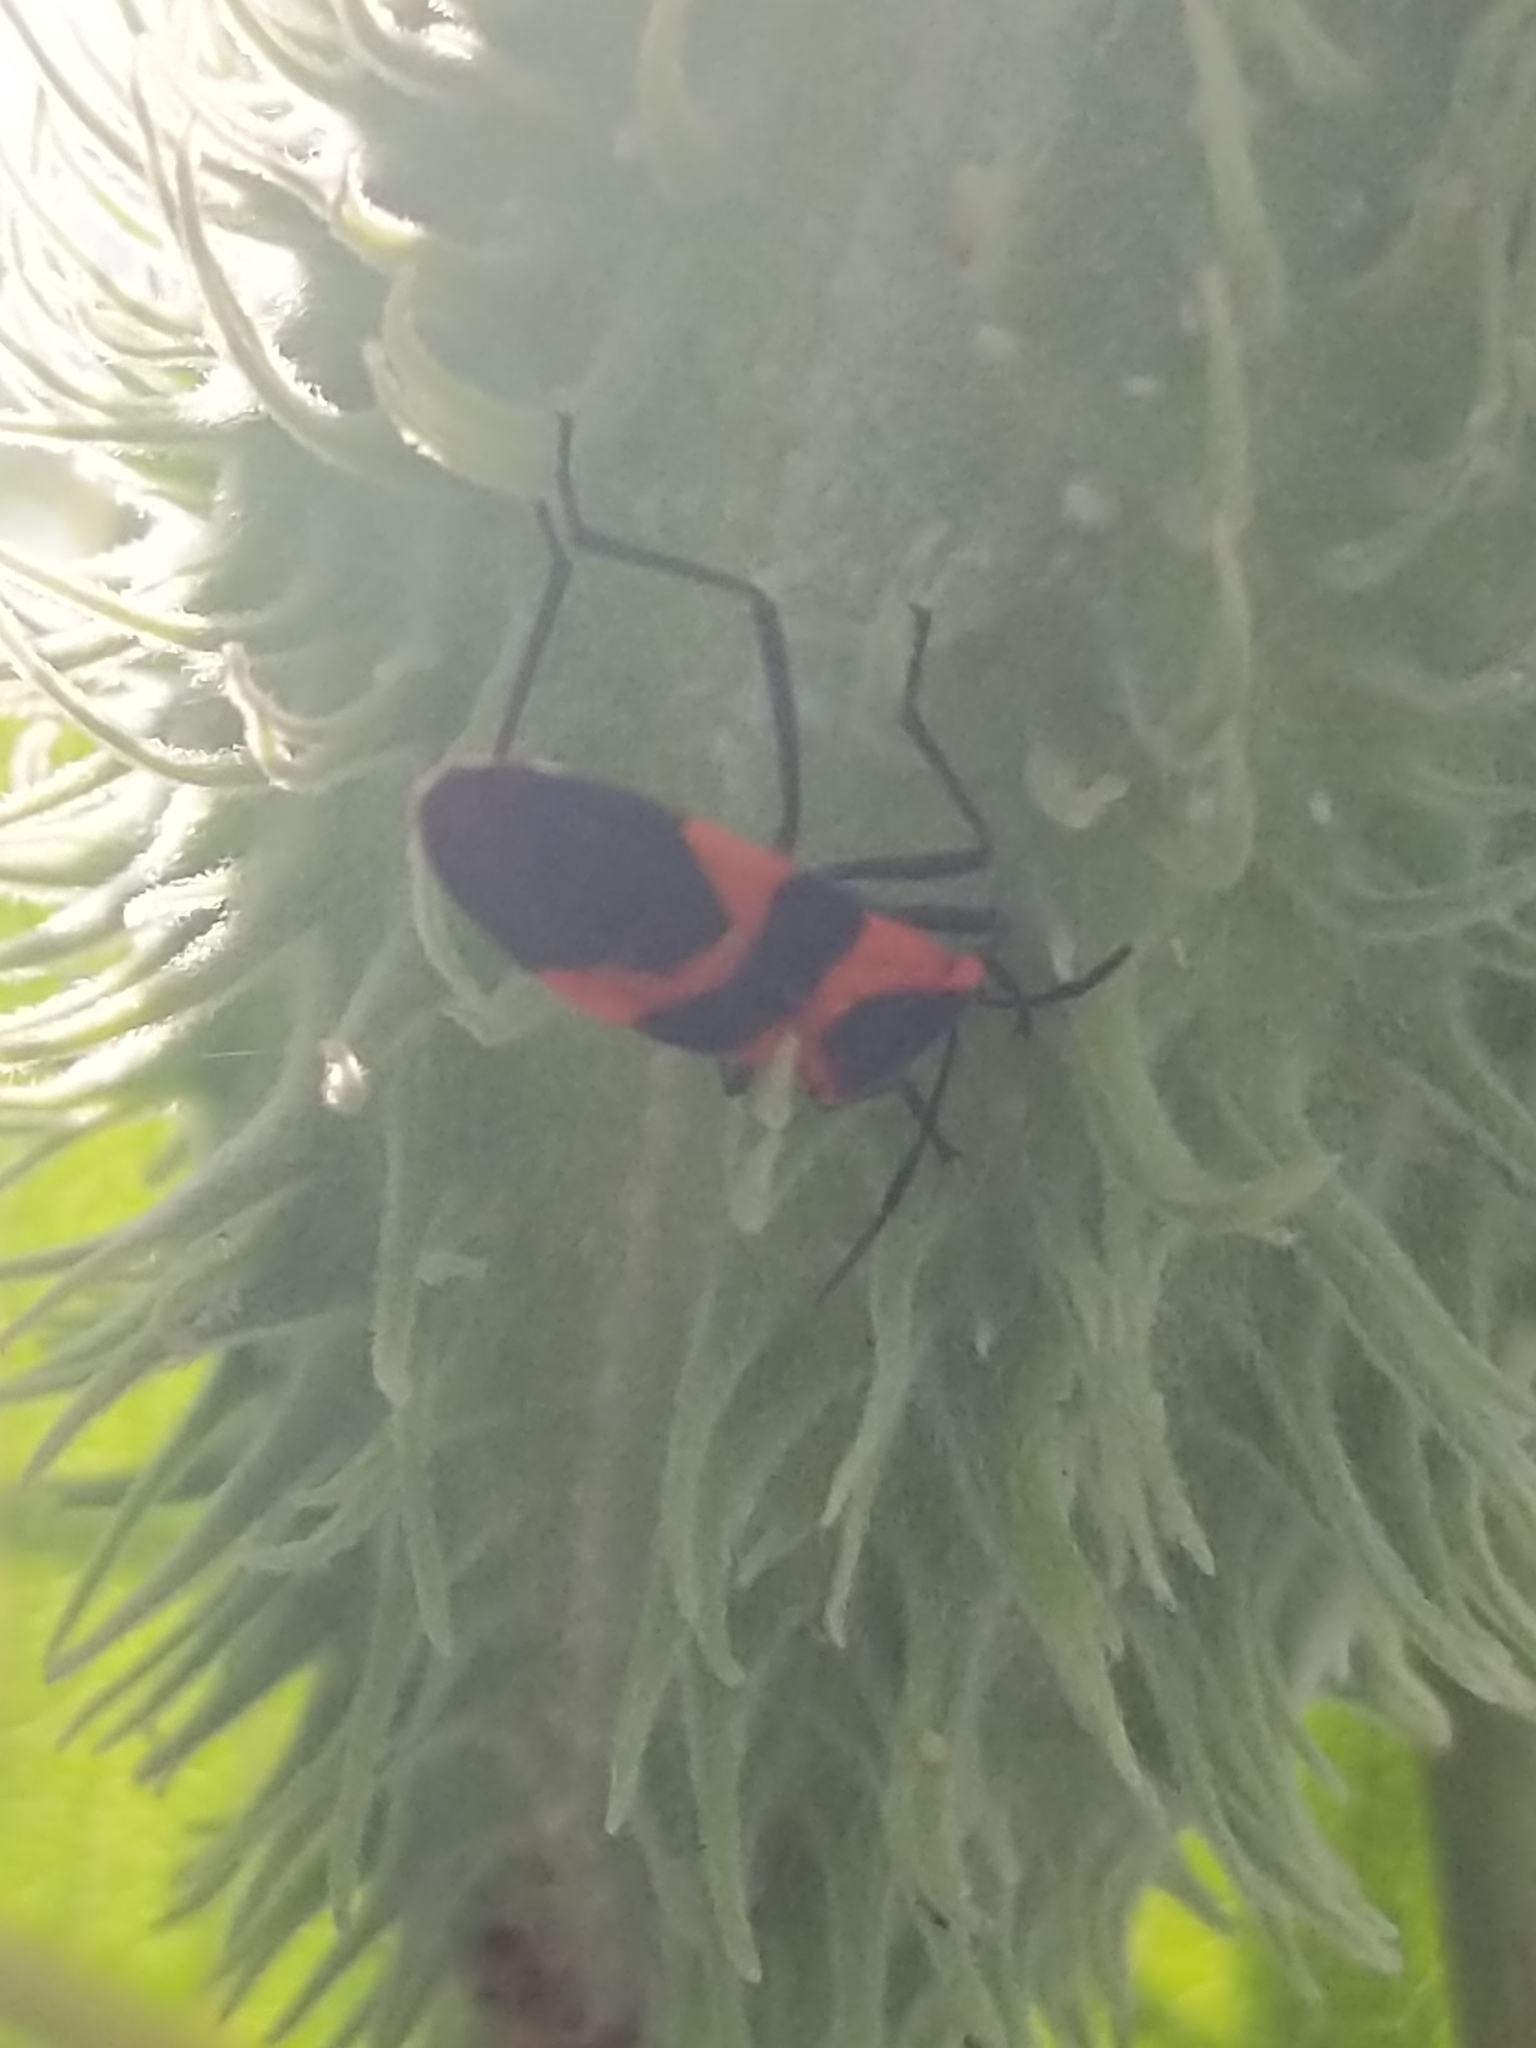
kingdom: Animalia
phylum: Arthropoda
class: Insecta
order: Hemiptera
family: Lygaeidae
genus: Oncopeltus
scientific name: Oncopeltus fasciatus
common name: Large milkweed bug
